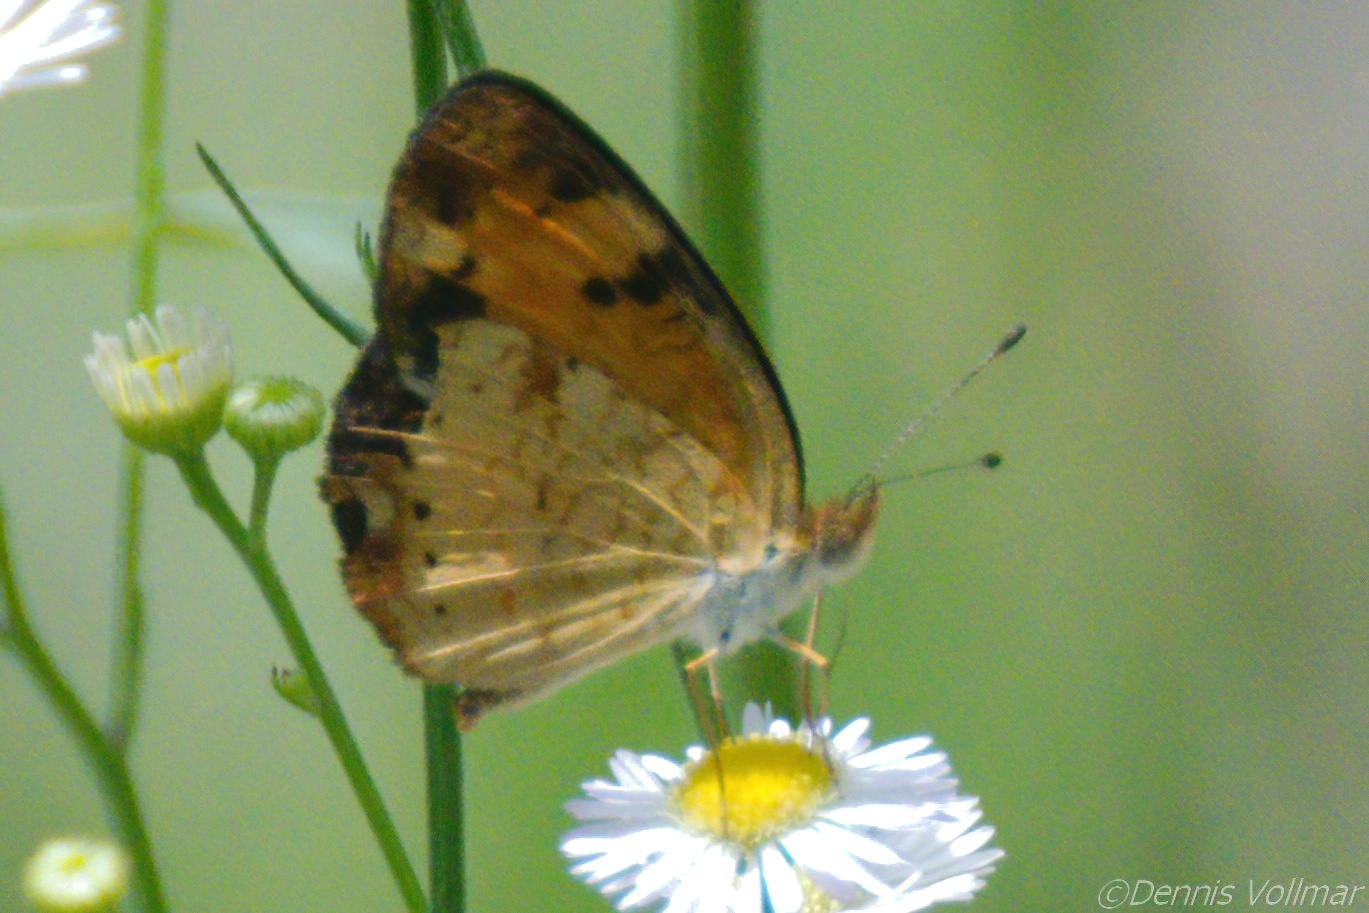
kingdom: Animalia
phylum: Arthropoda
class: Insecta
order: Lepidoptera
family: Nymphalidae
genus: Phyciodes
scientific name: Phyciodes tharos
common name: Pearl crescent
